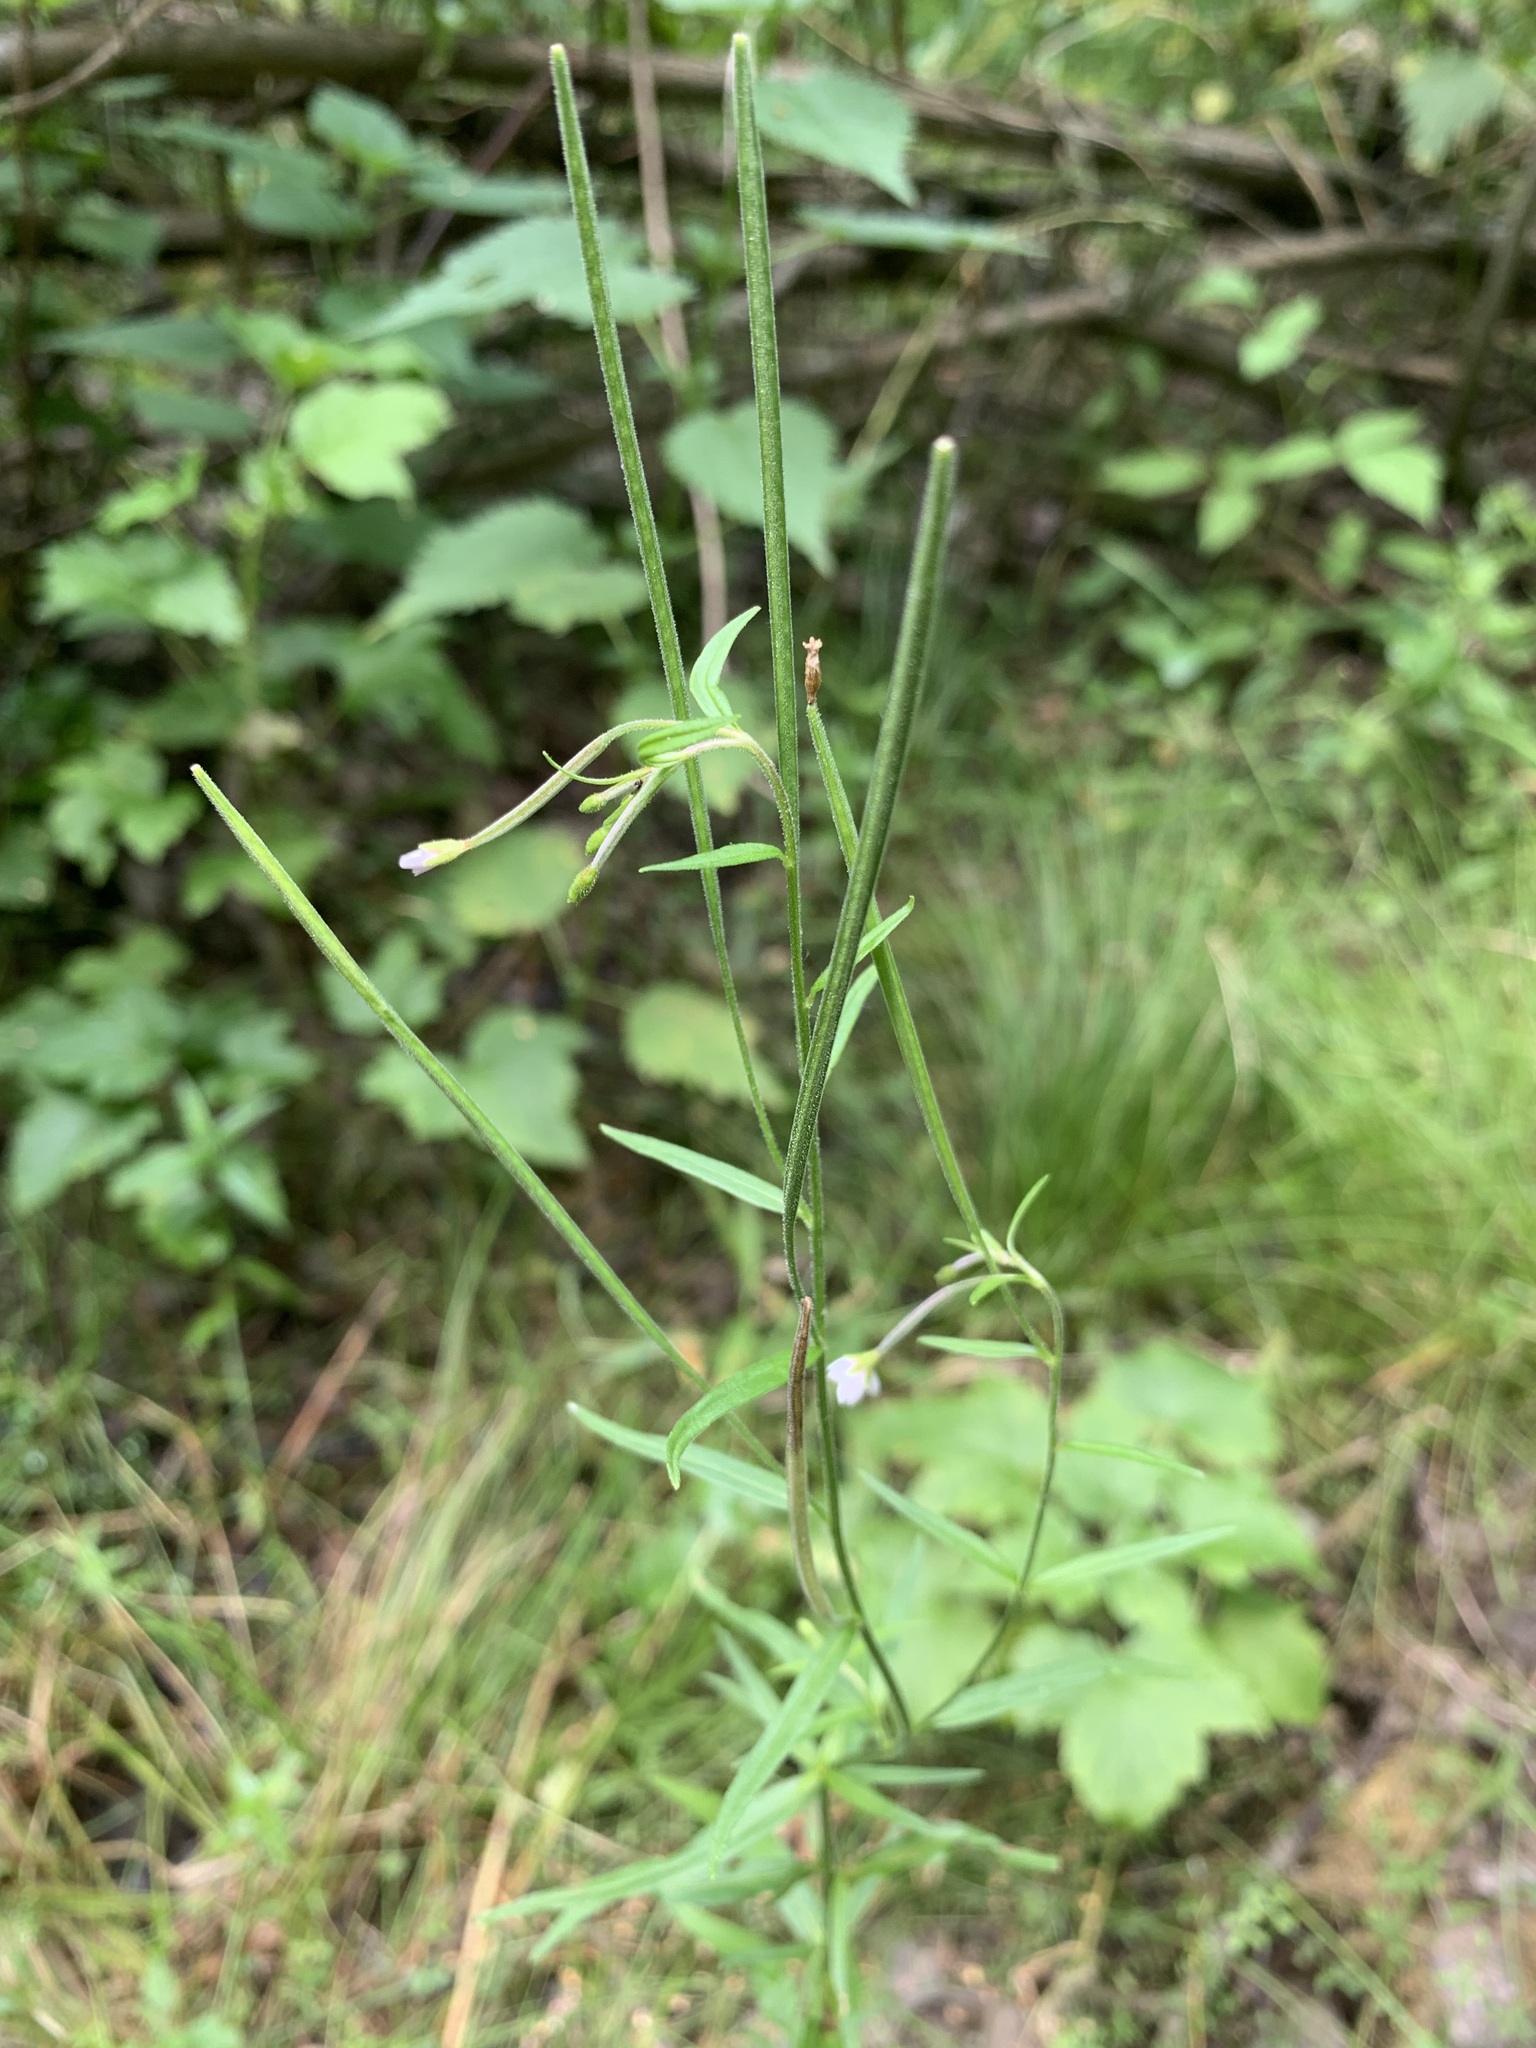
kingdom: Plantae
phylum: Tracheophyta
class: Magnoliopsida
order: Myrtales
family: Onagraceae
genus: Epilobium
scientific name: Epilobium palustre
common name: Marsh willowherb
